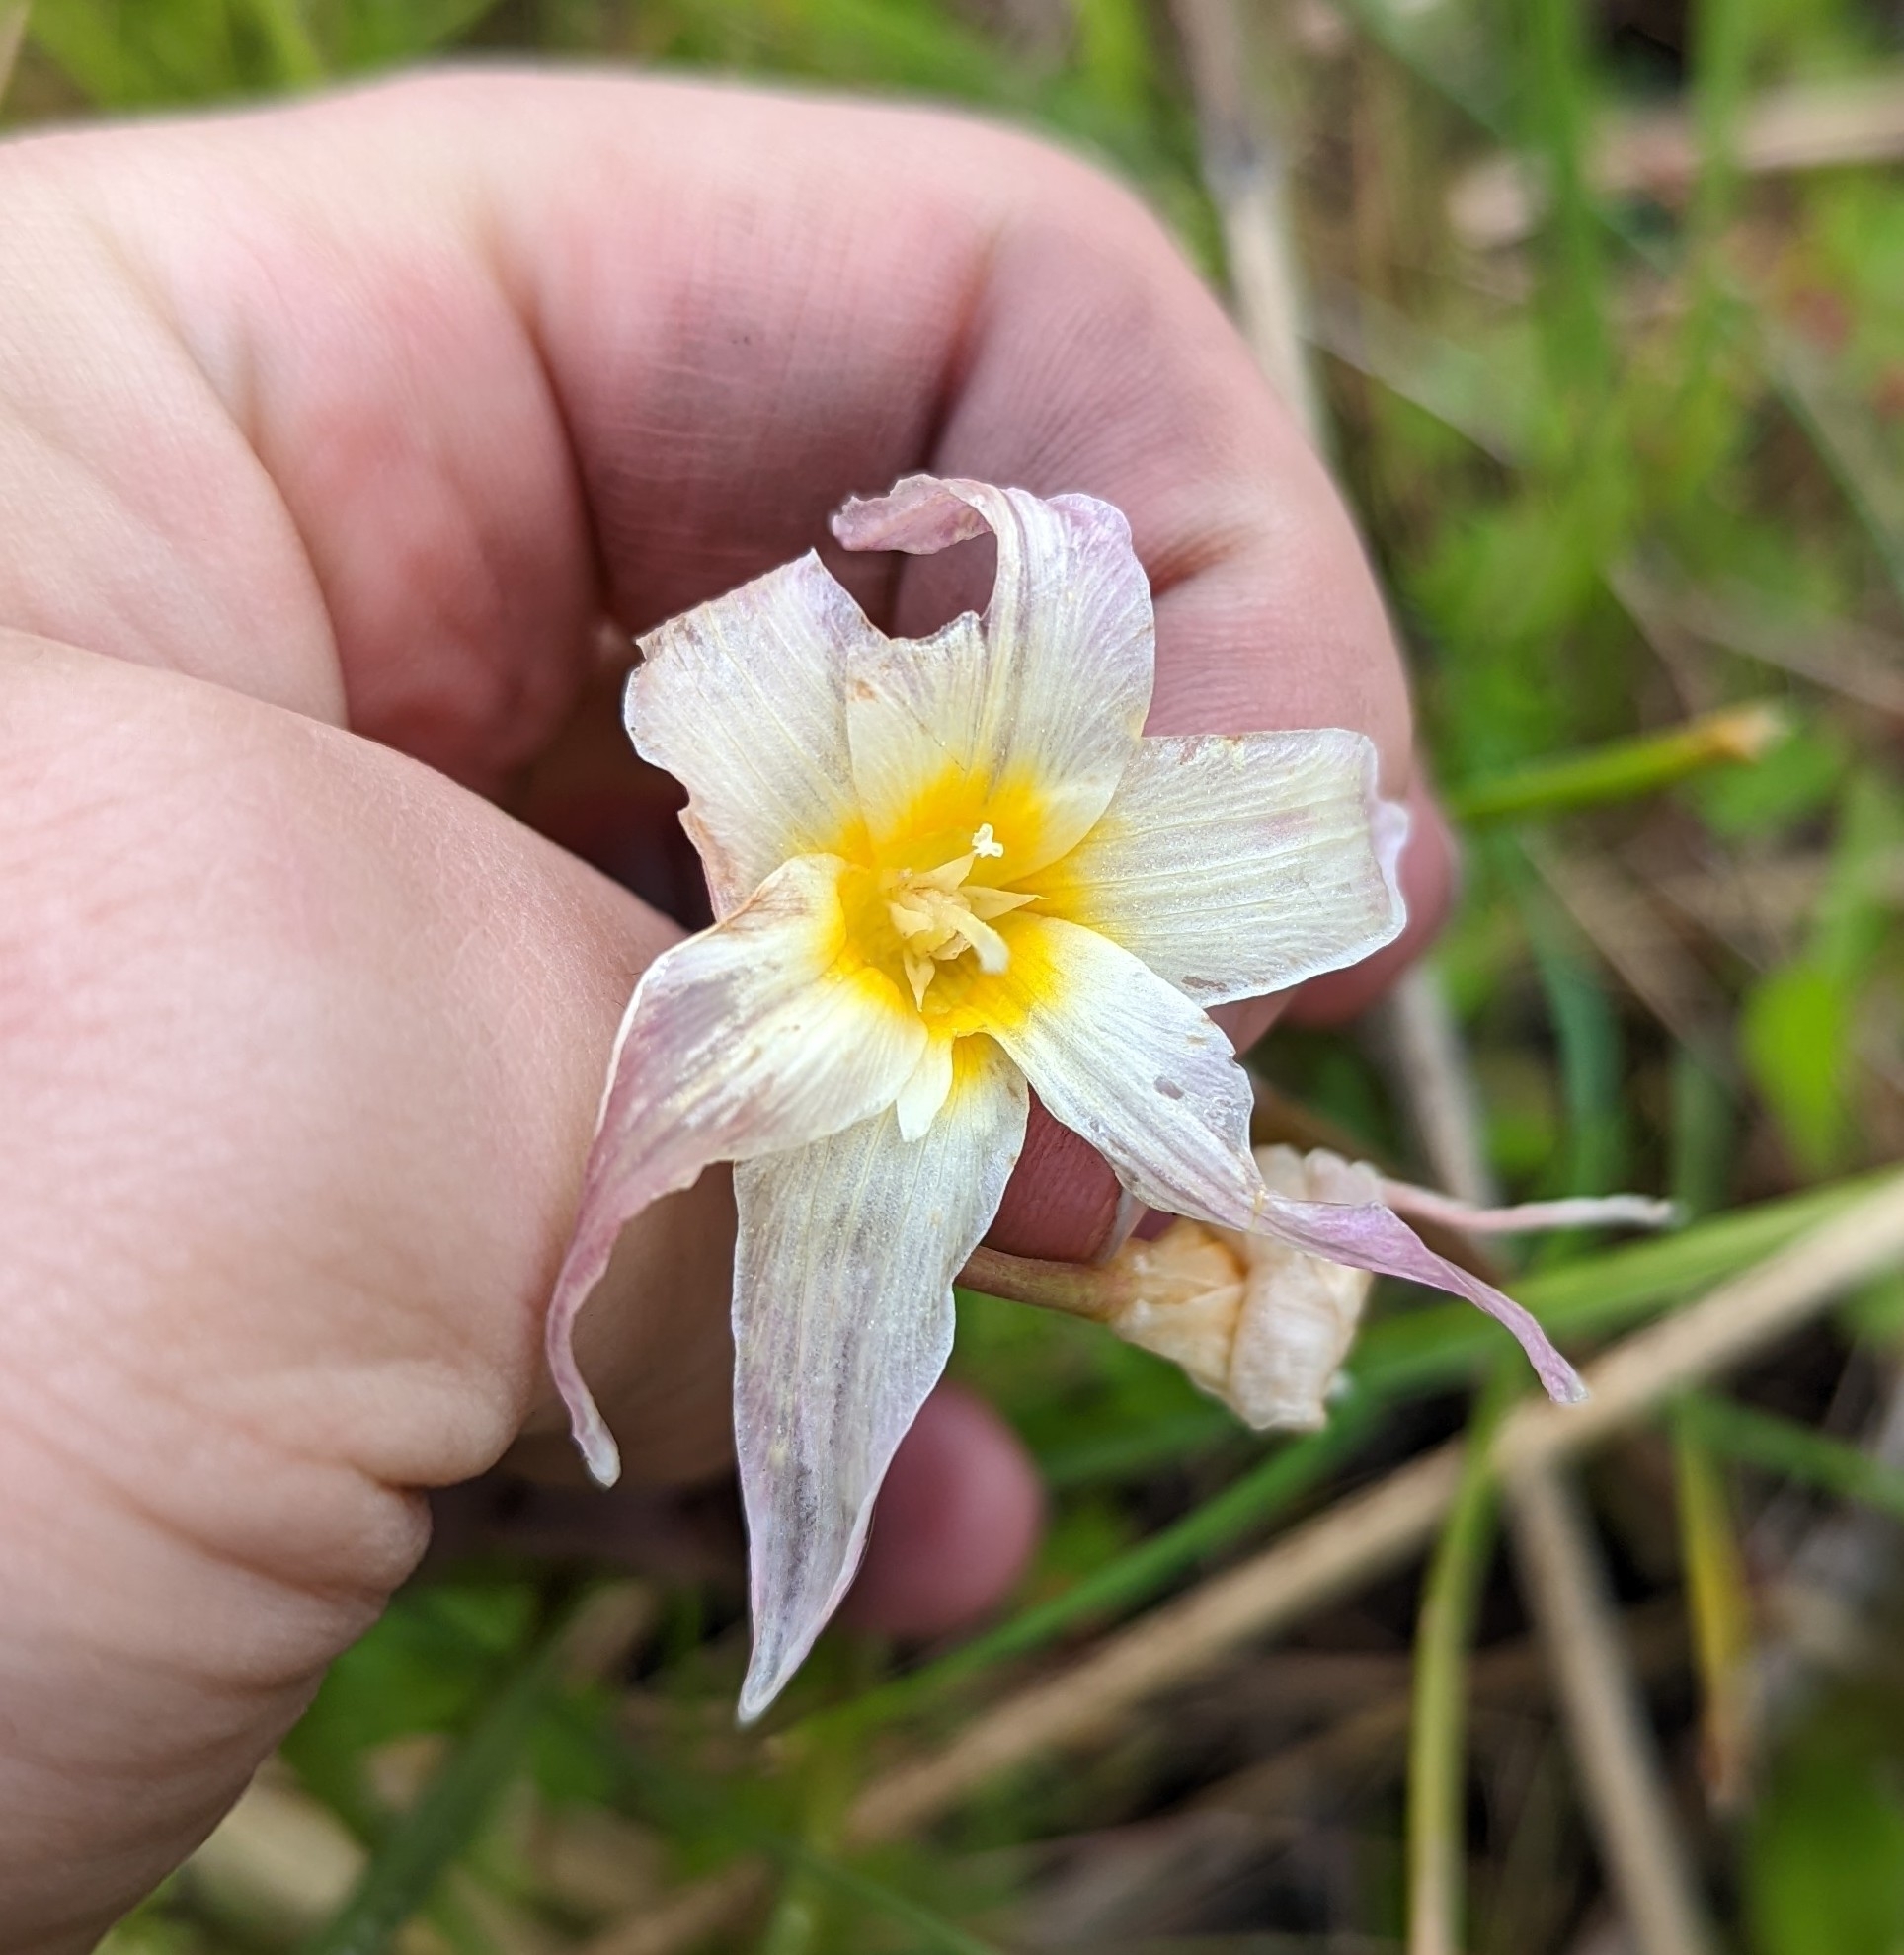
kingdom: Plantae
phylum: Tracheophyta
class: Liliopsida
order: Liliales
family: Liliaceae
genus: Erythronium
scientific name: Erythronium oregonum
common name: Giant adder's-tongue
